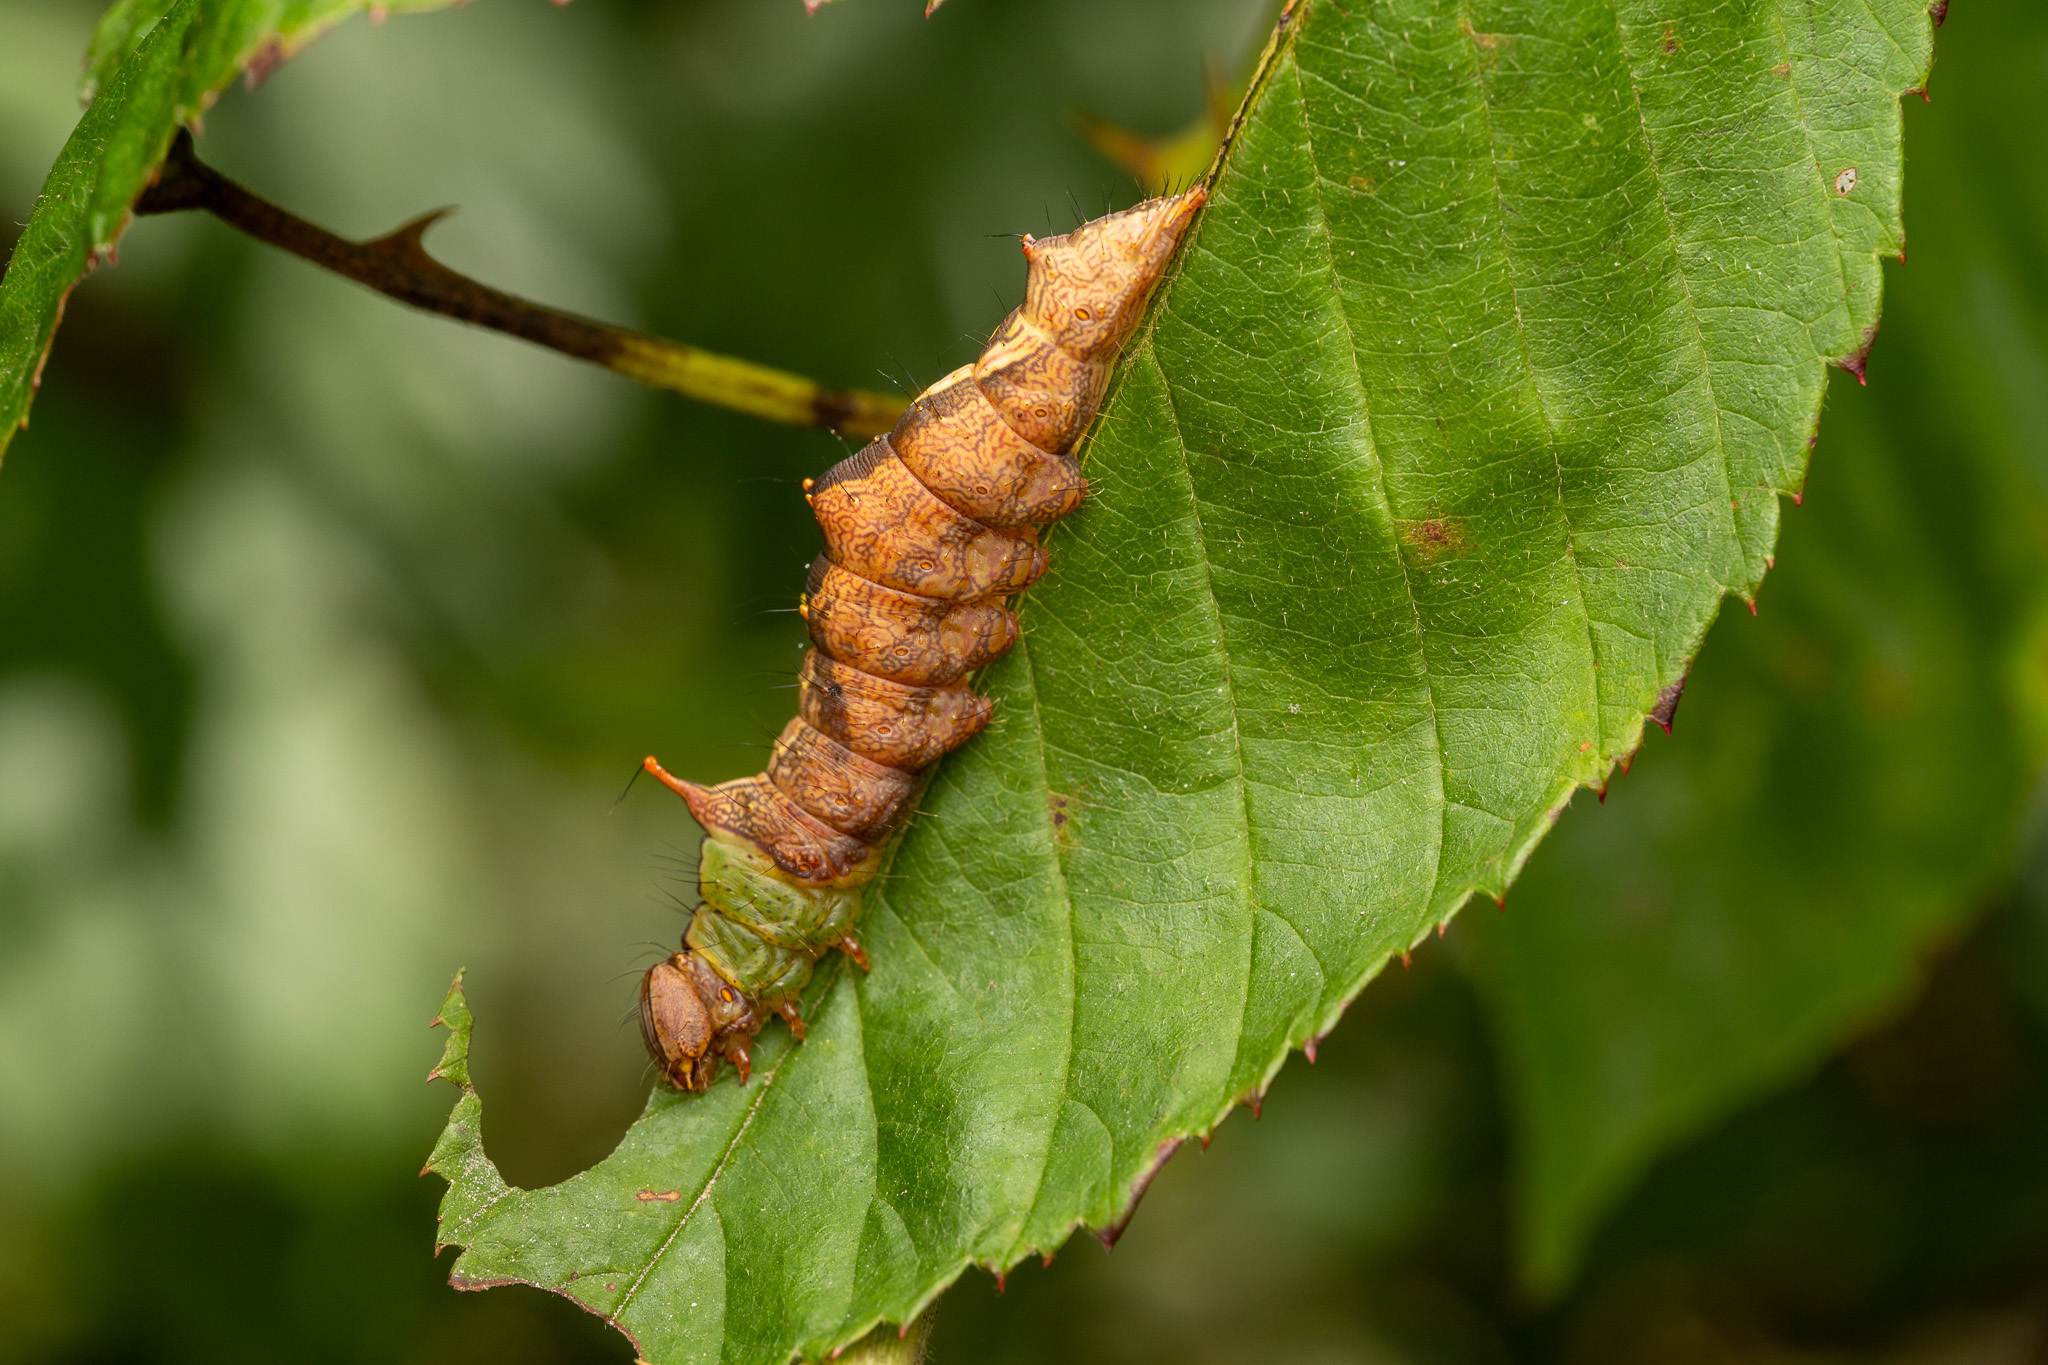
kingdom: Animalia
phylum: Arthropoda
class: Insecta
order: Lepidoptera
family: Notodontidae
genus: Schizura
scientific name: Schizura ipomaeae
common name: Morning-glory prominent
